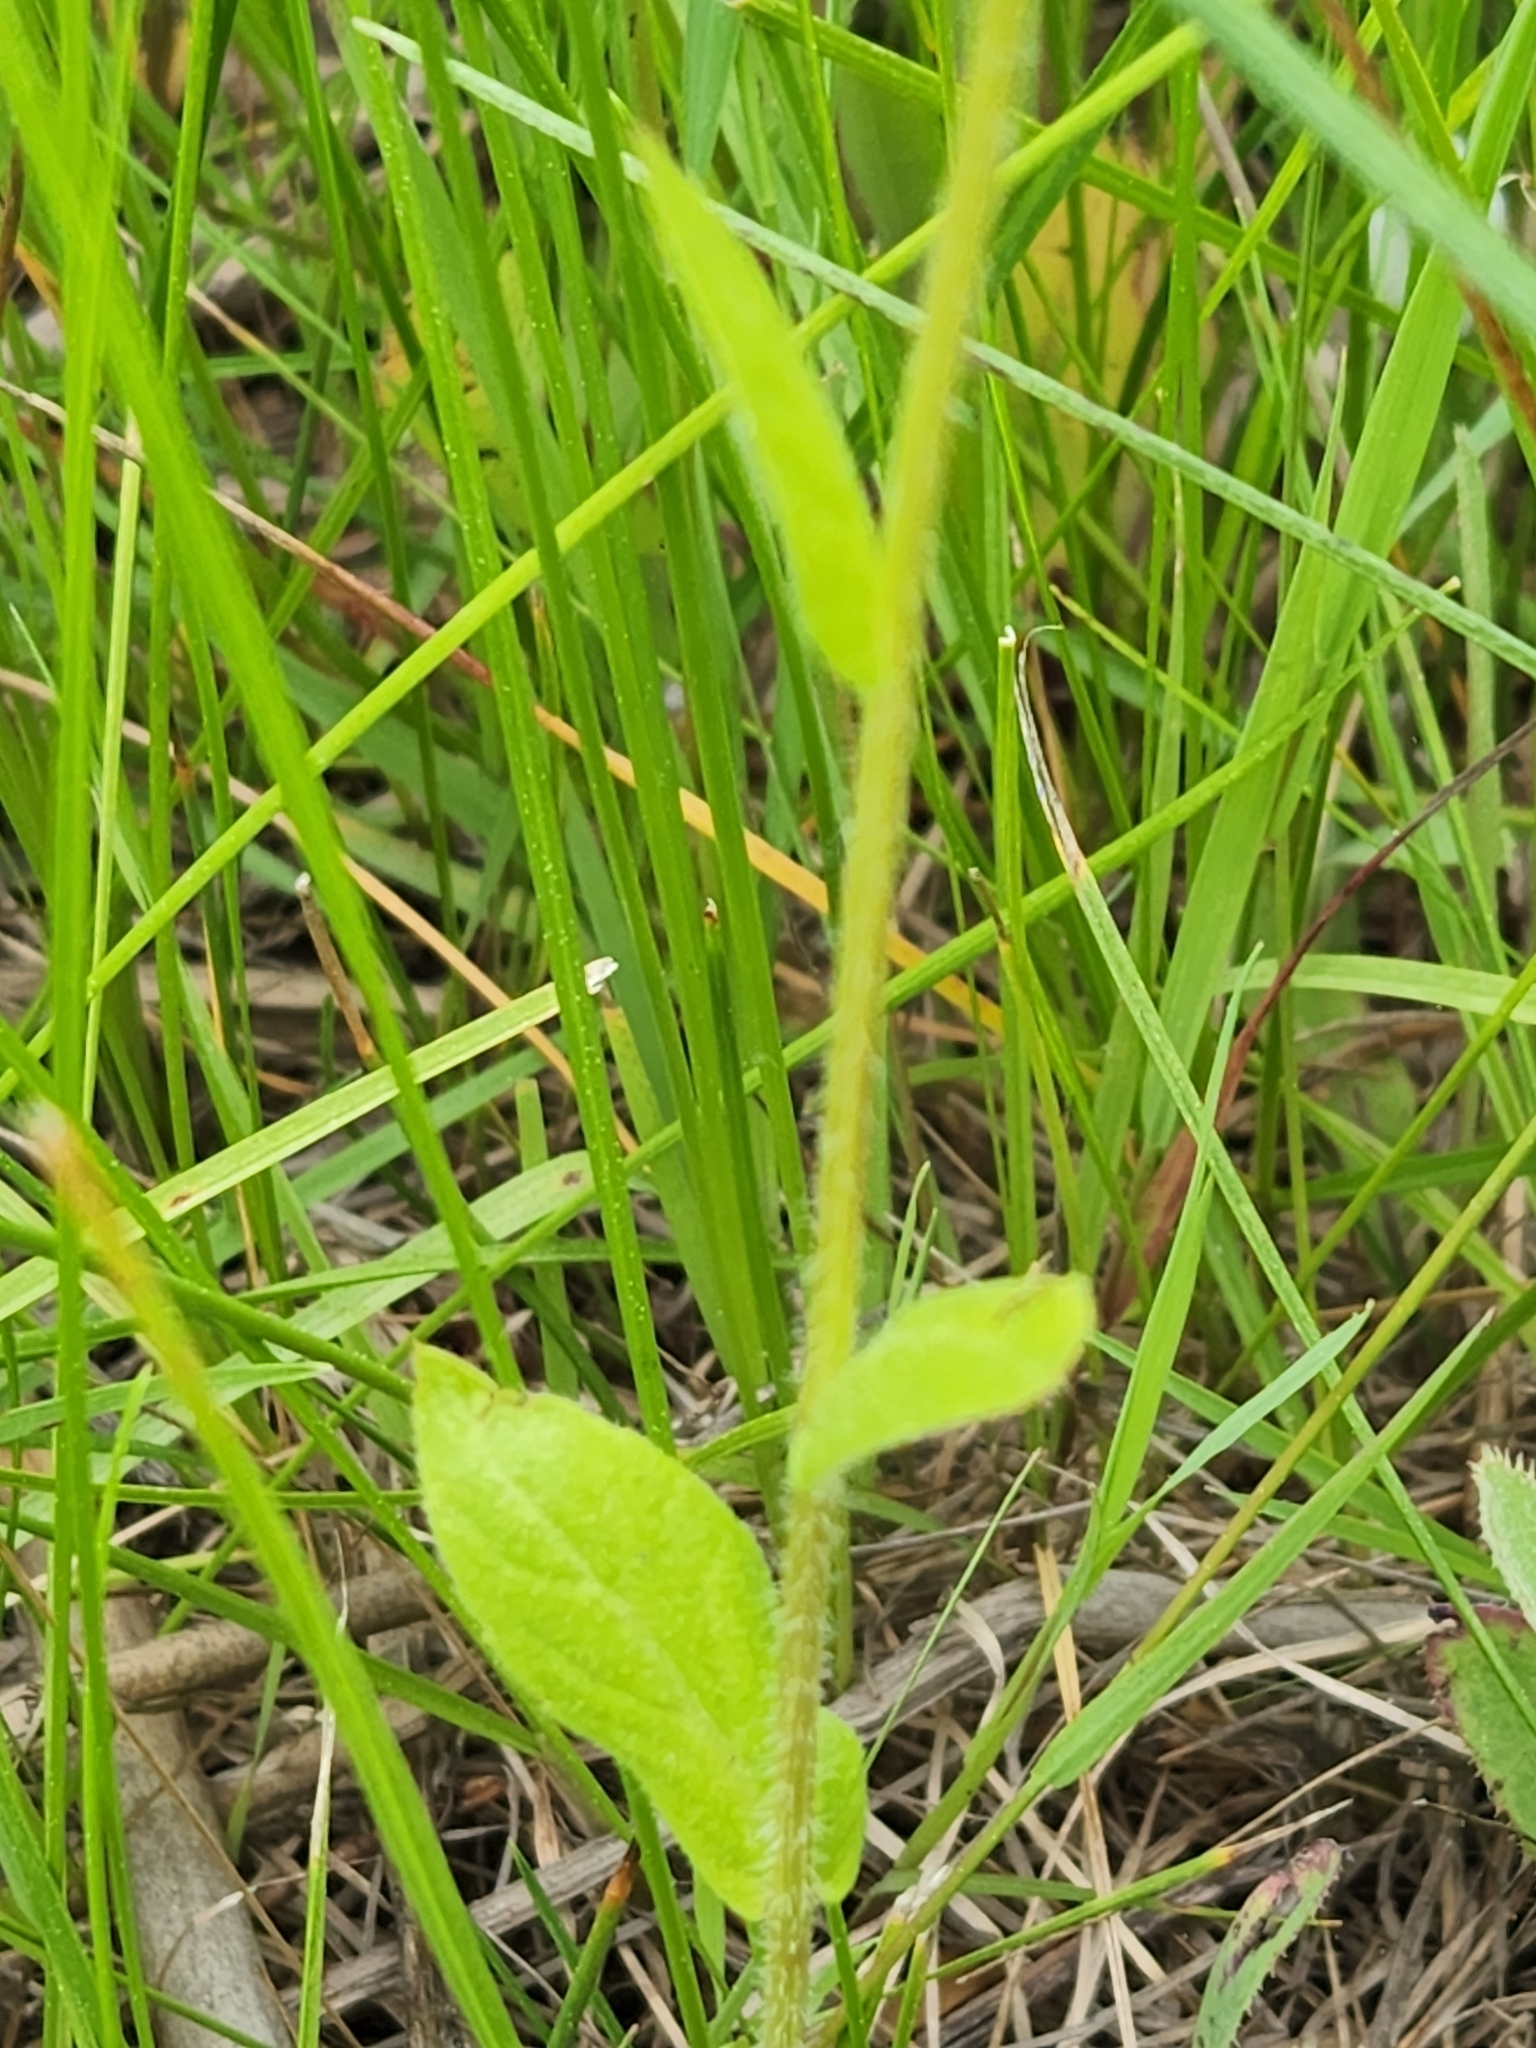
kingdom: Plantae
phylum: Tracheophyta
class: Magnoliopsida
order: Asterales
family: Asteraceae
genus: Erigeron
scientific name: Erigeron philadelphicus
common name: Robin's-plantain
